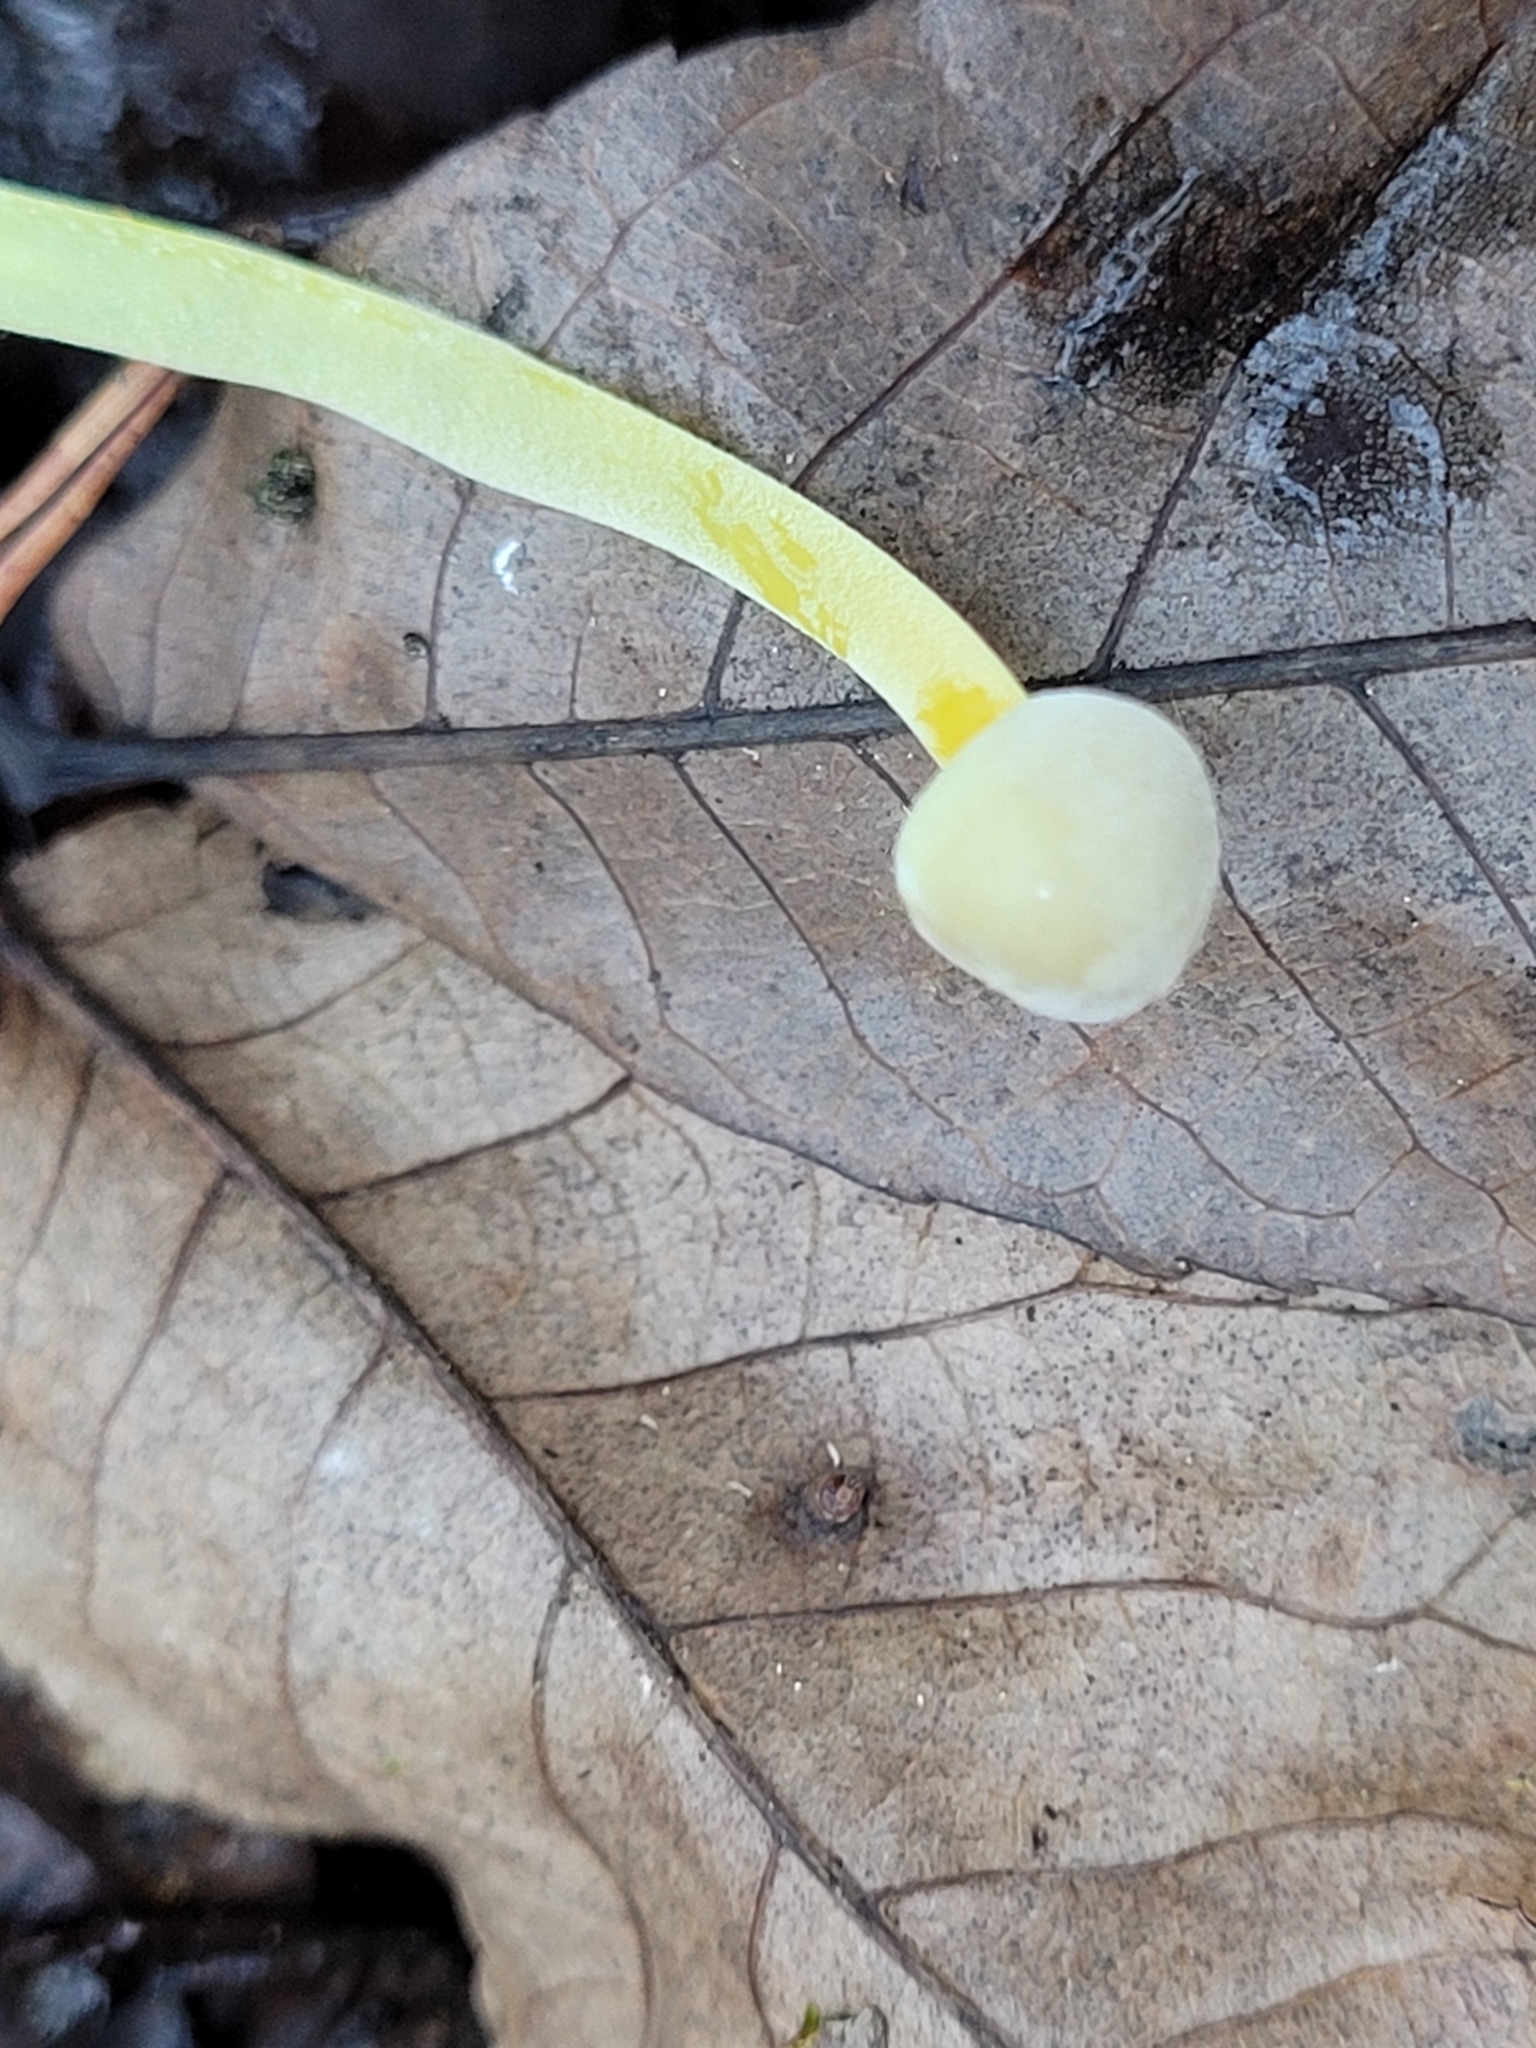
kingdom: Fungi
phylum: Basidiomycota
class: Agaricomycetes
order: Agaricales
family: Mycenaceae
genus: Mycena
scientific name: Mycena epipterygia
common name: Yellowleg bonnet
